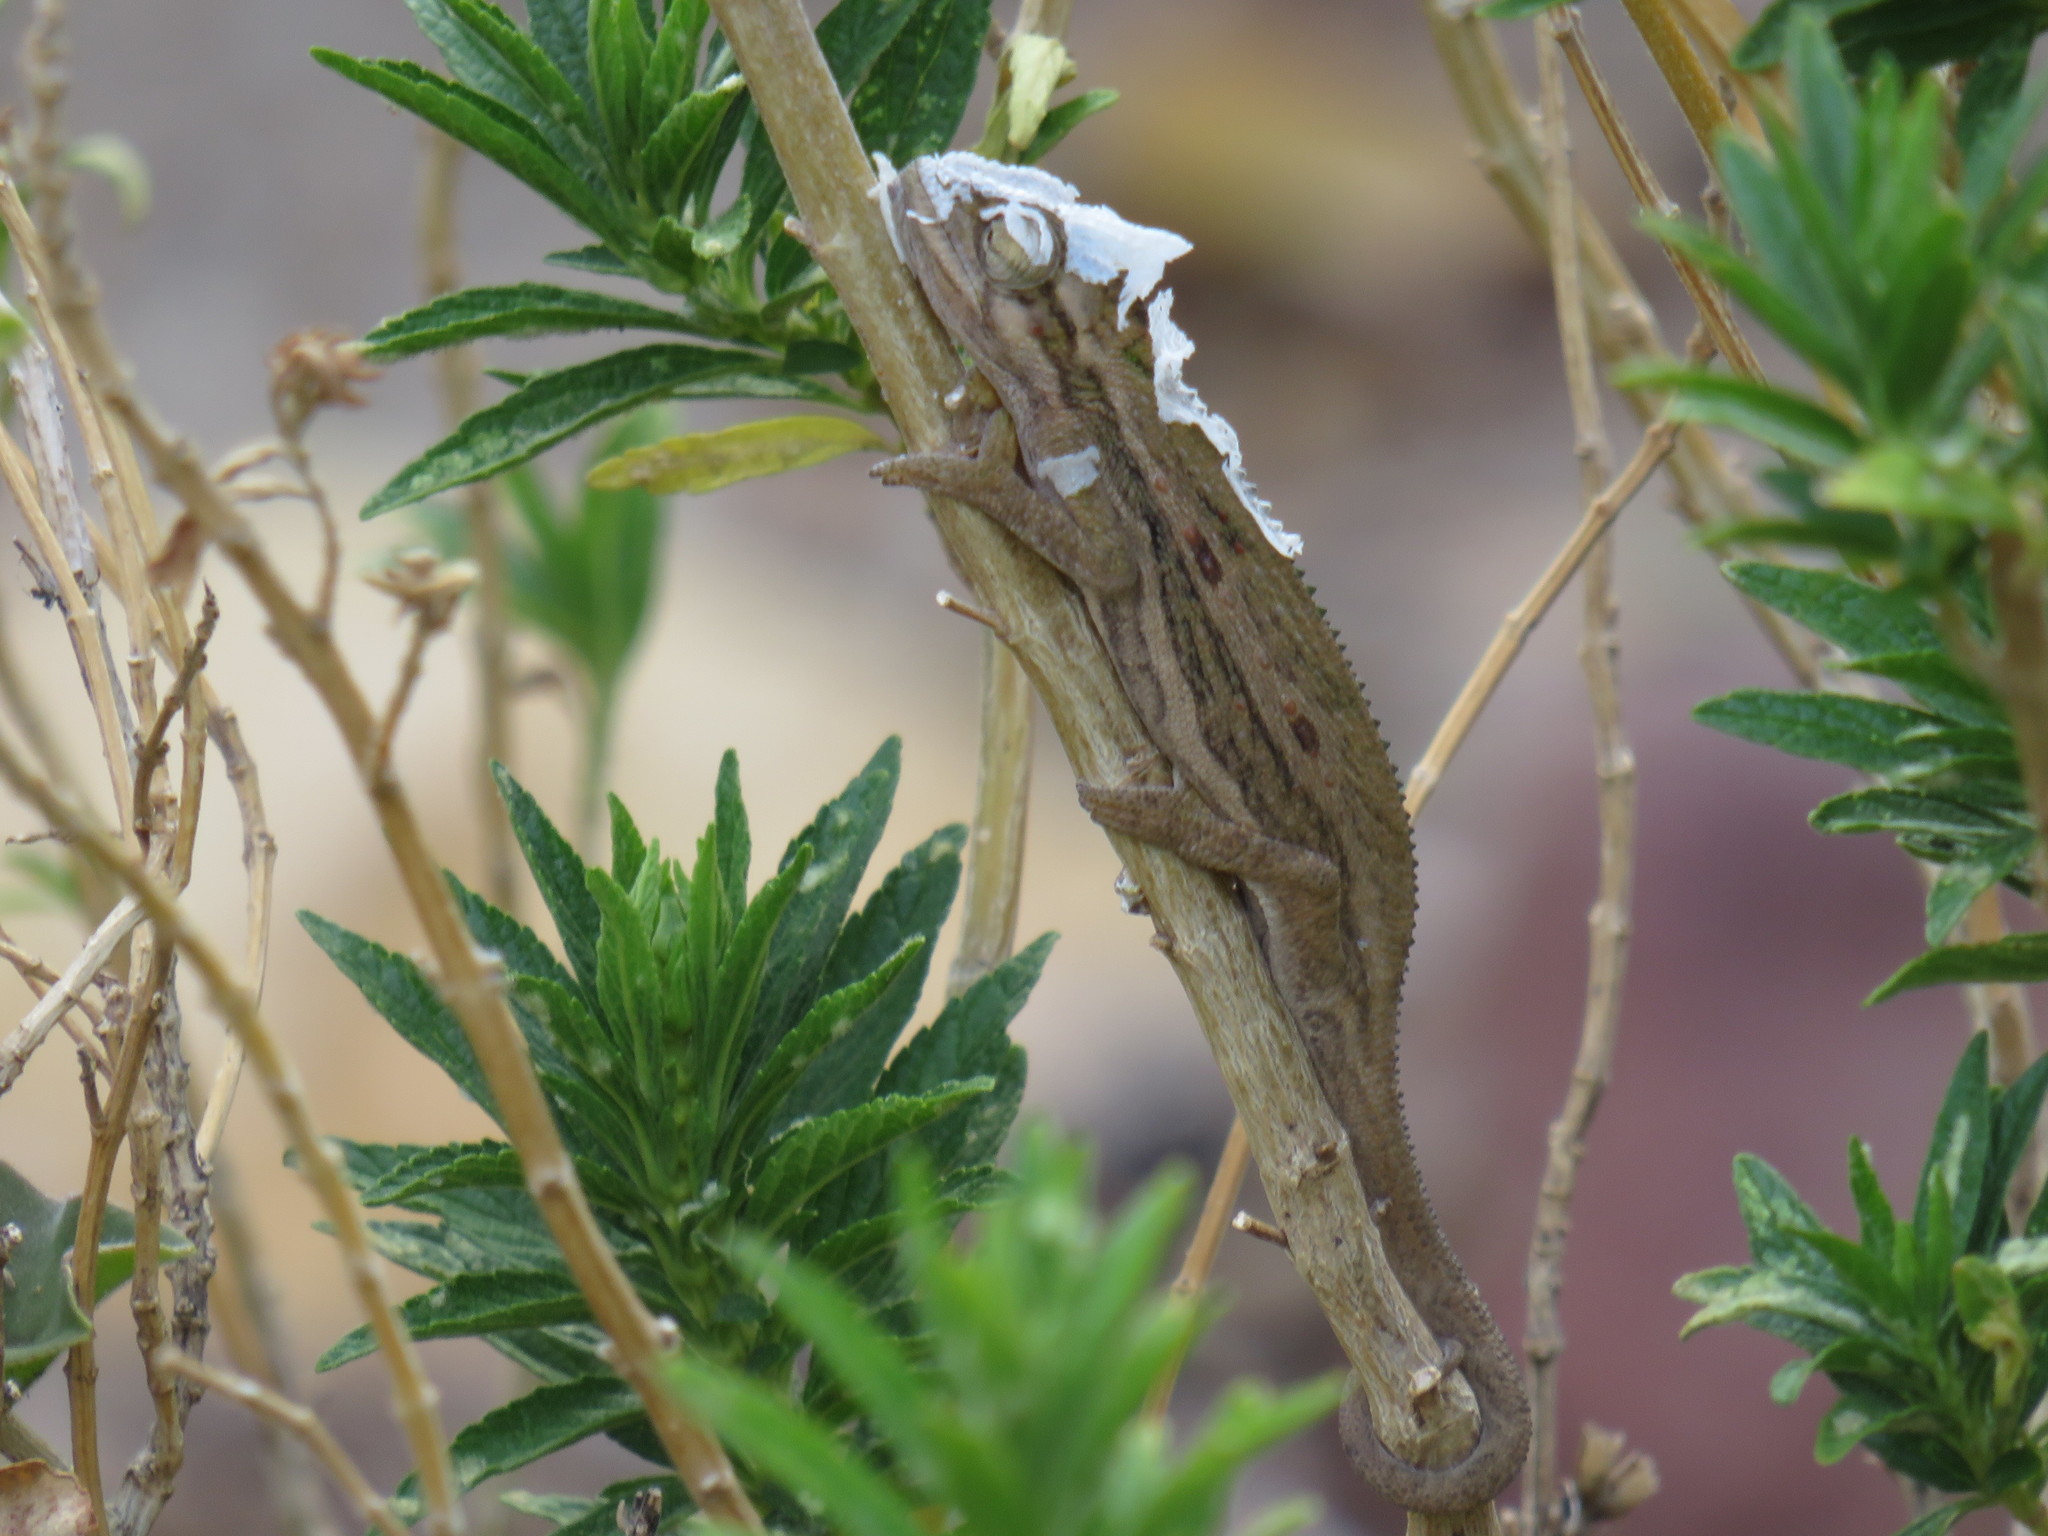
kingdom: Animalia
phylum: Chordata
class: Squamata
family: Chamaeleonidae
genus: Bradypodion
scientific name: Bradypodion pumilum
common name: Cape dwarf chameleon
